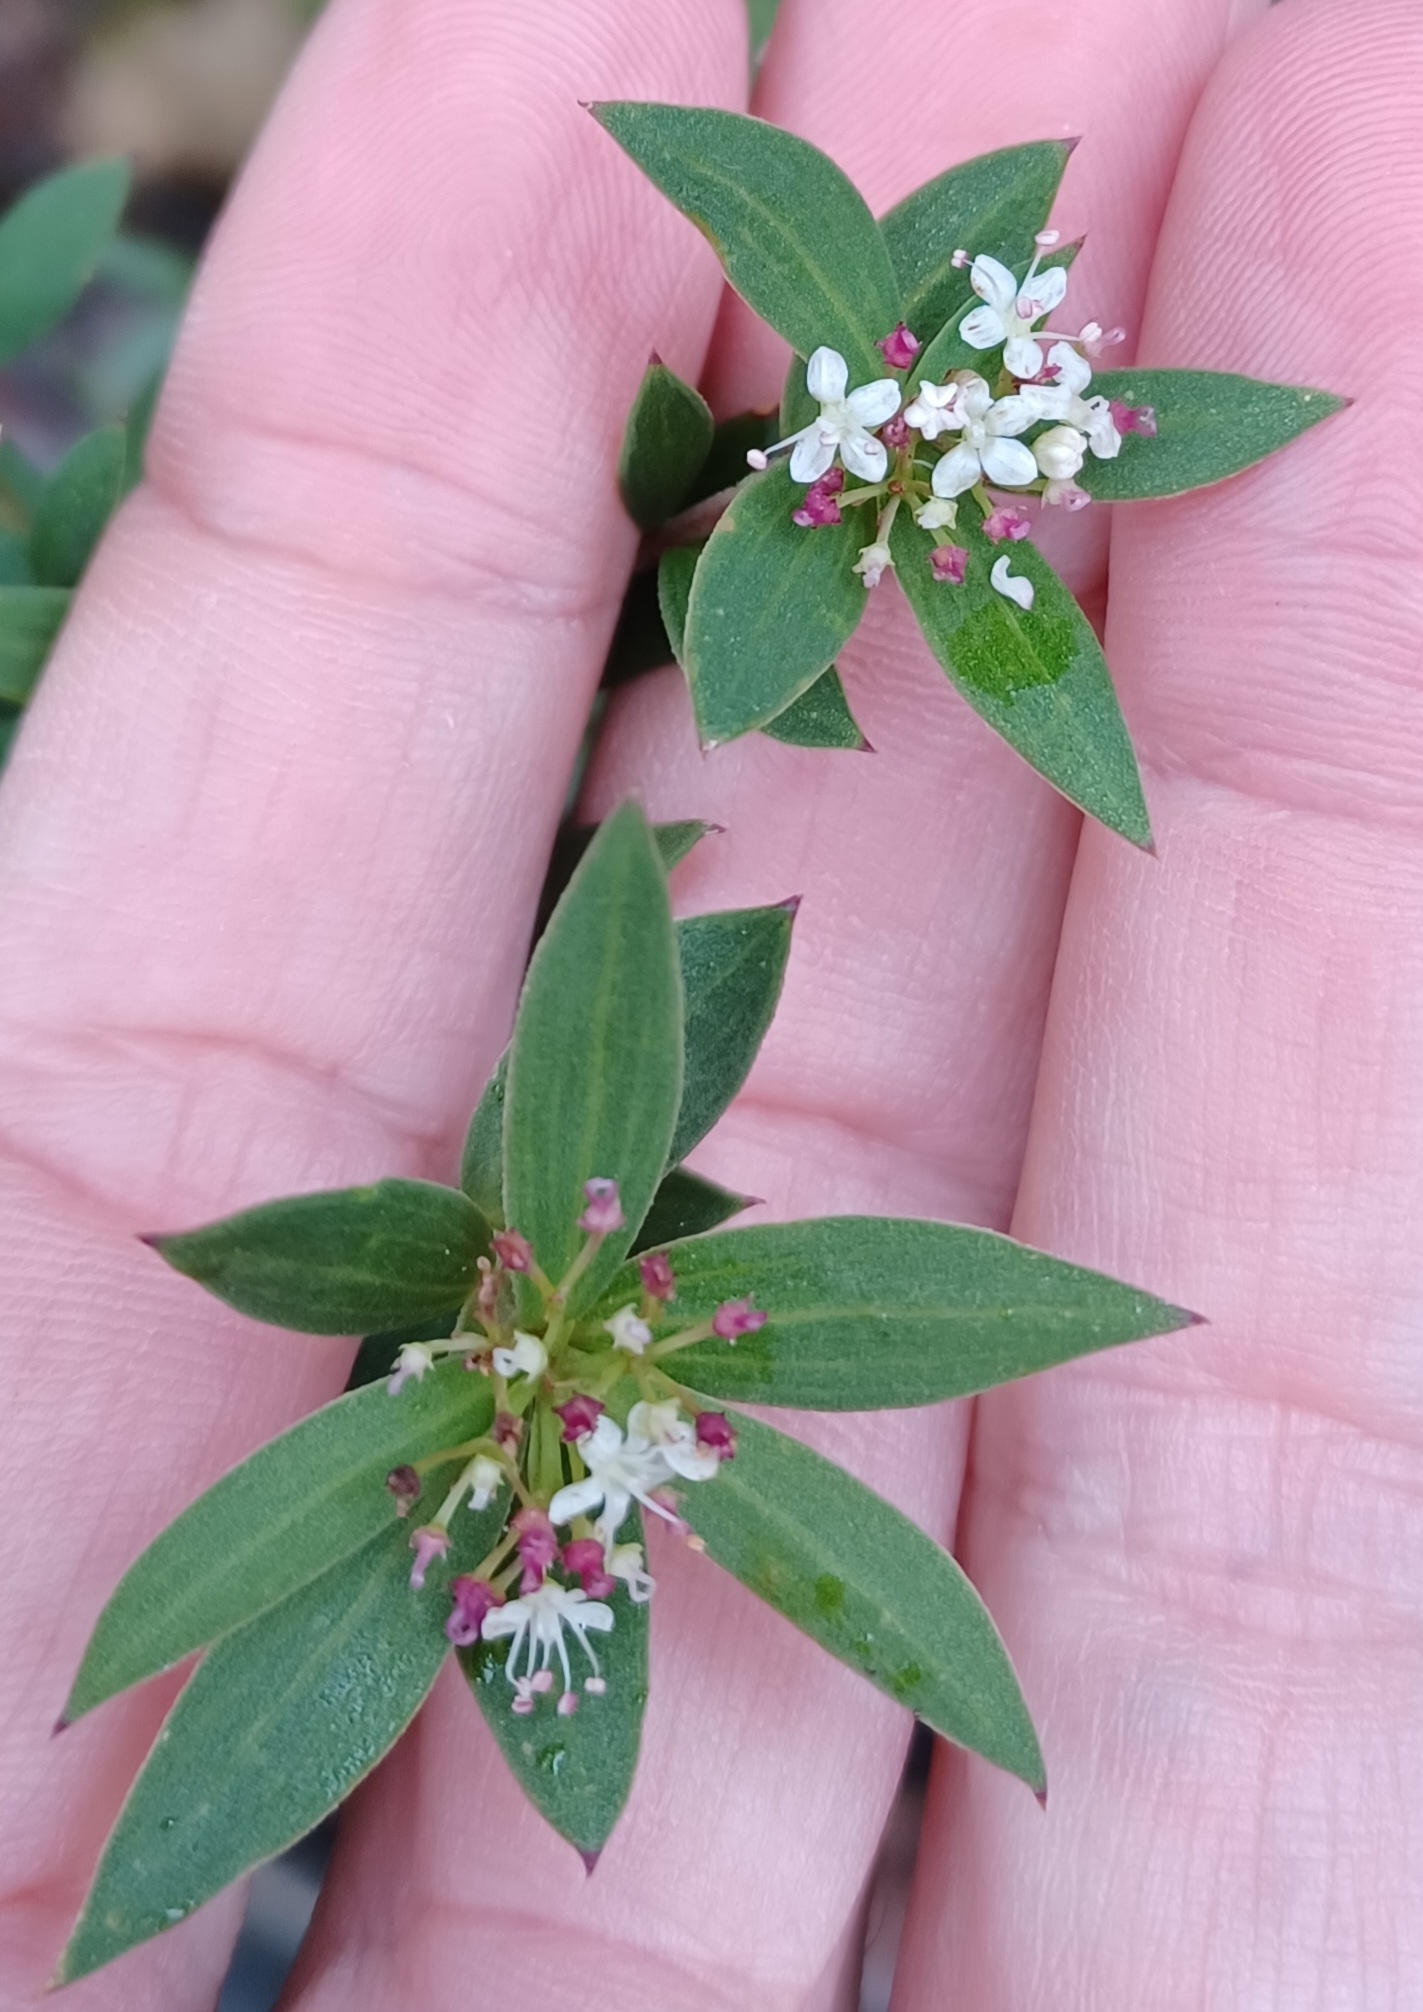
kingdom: Plantae
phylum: Tracheophyta
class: Magnoliopsida
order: Apiales
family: Apiaceae
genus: Platysace
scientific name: Platysace lanceolata
